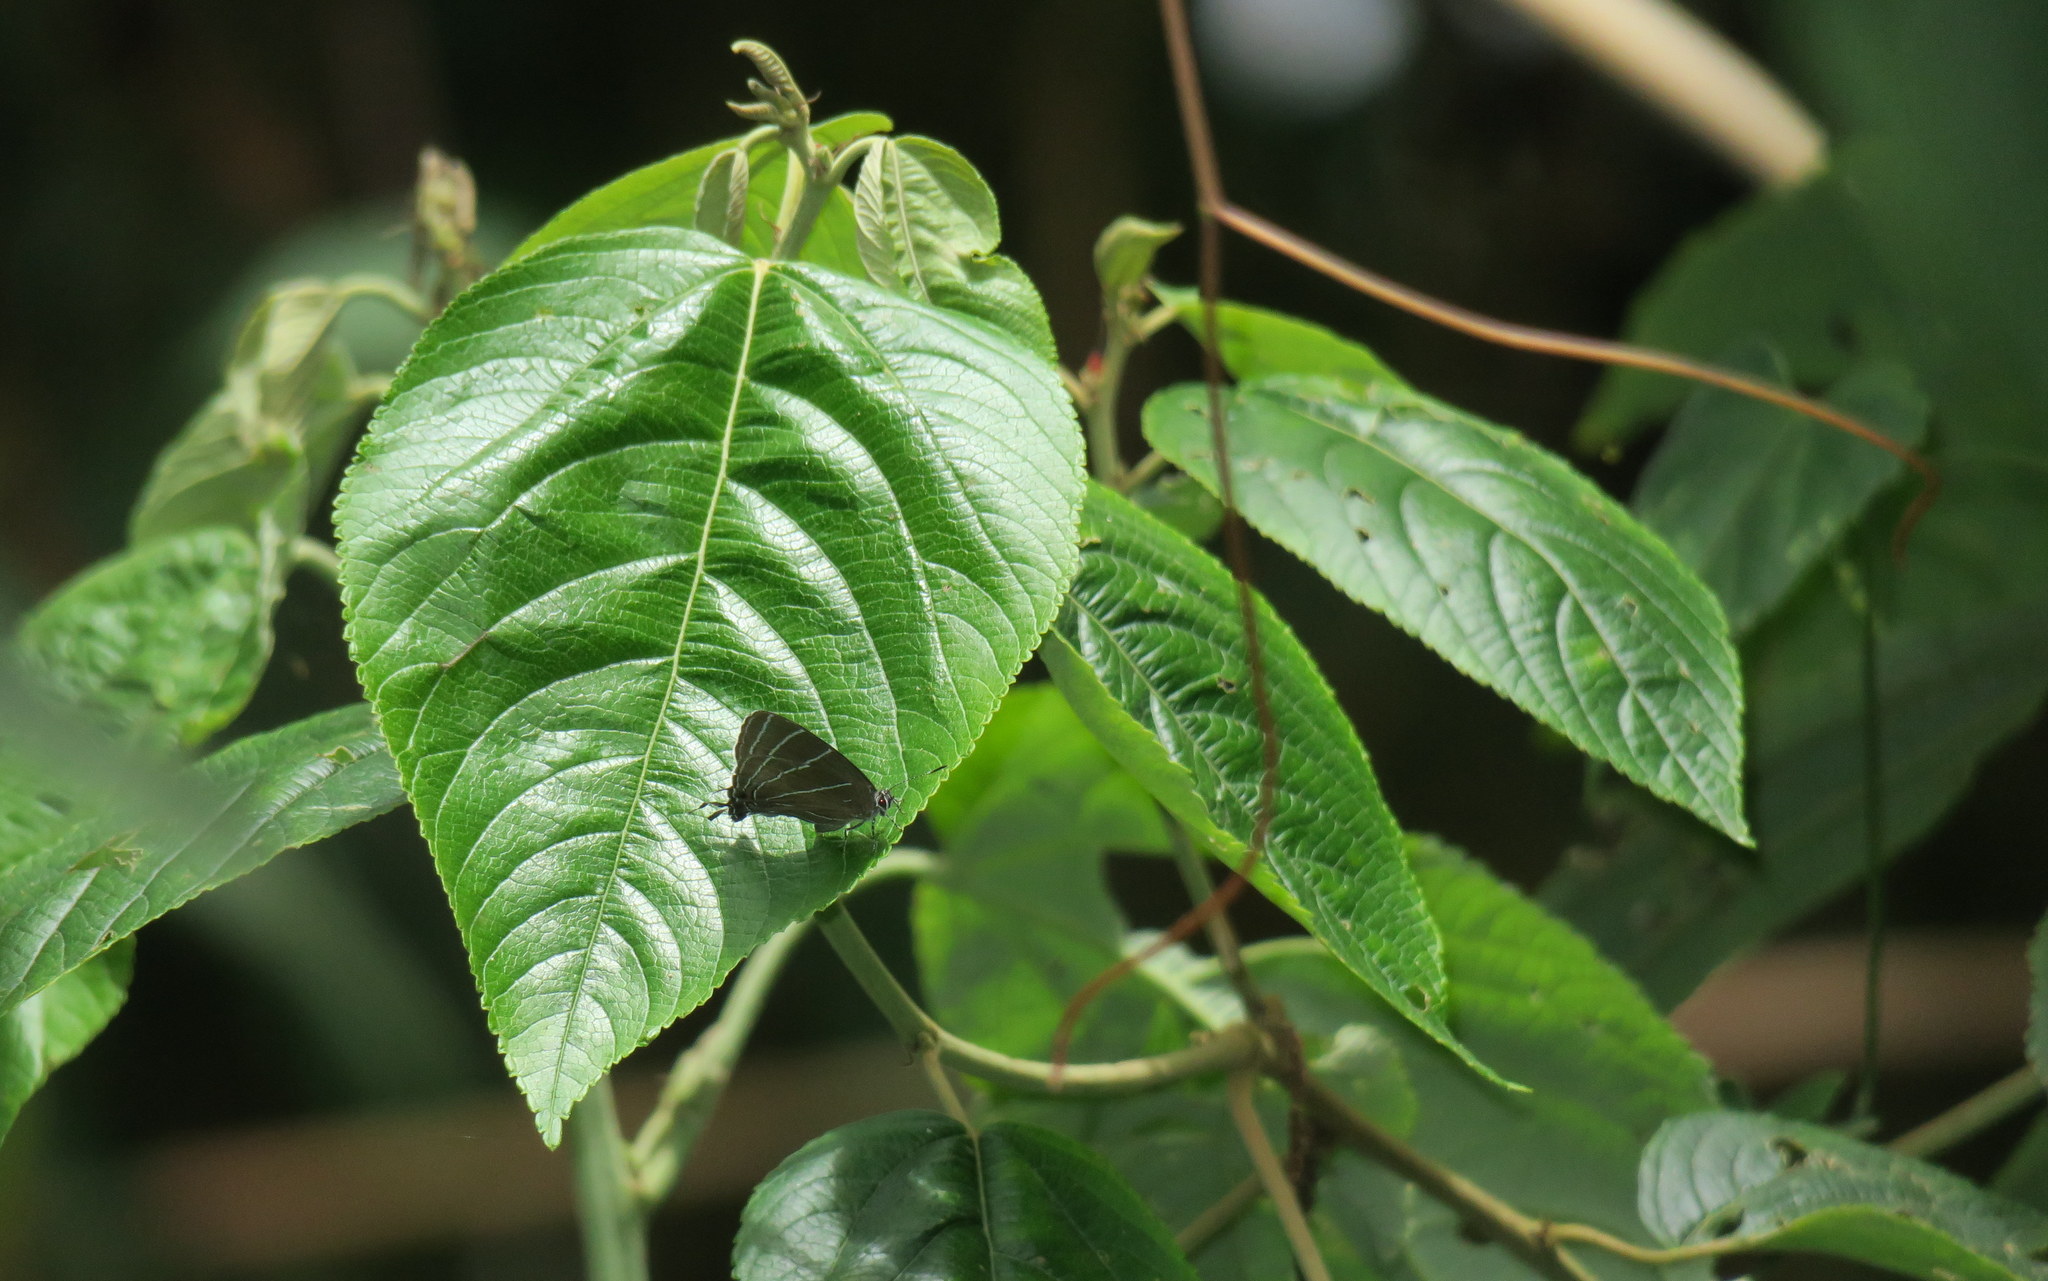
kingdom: Animalia
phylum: Arthropoda
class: Insecta
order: Lepidoptera
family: Lycaenidae
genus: Laothus
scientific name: Laothus viridicans
